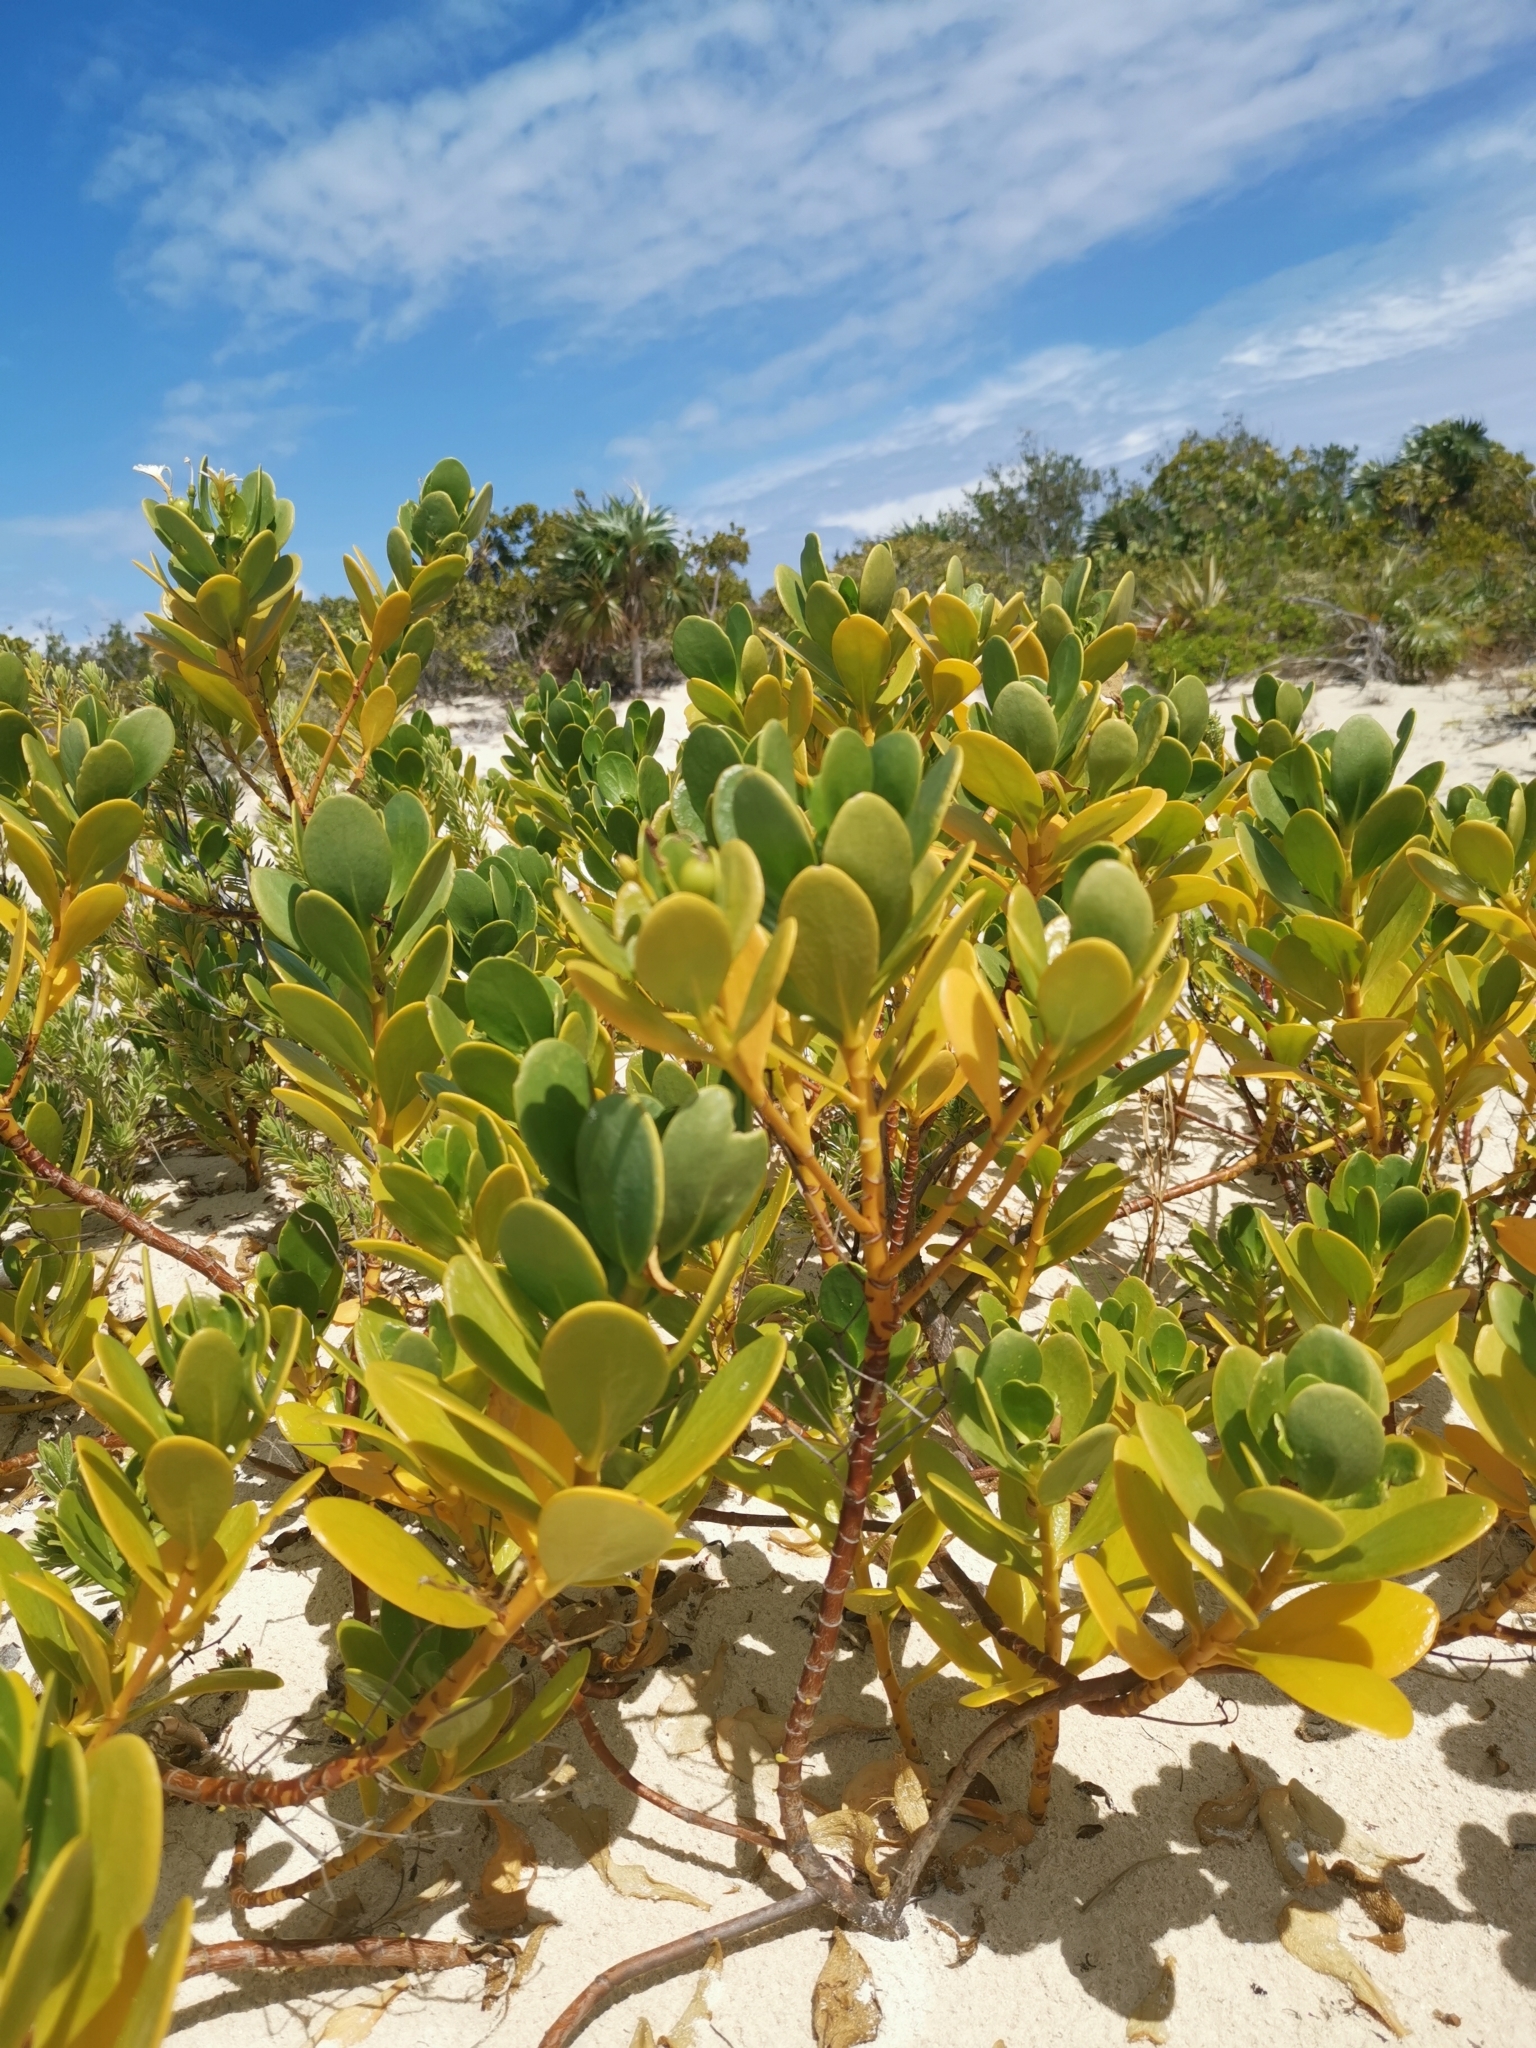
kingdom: Plantae
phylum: Tracheophyta
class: Magnoliopsida
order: Asterales
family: Goodeniaceae
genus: Scaevola
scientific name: Scaevola plumieri
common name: Gull feed
